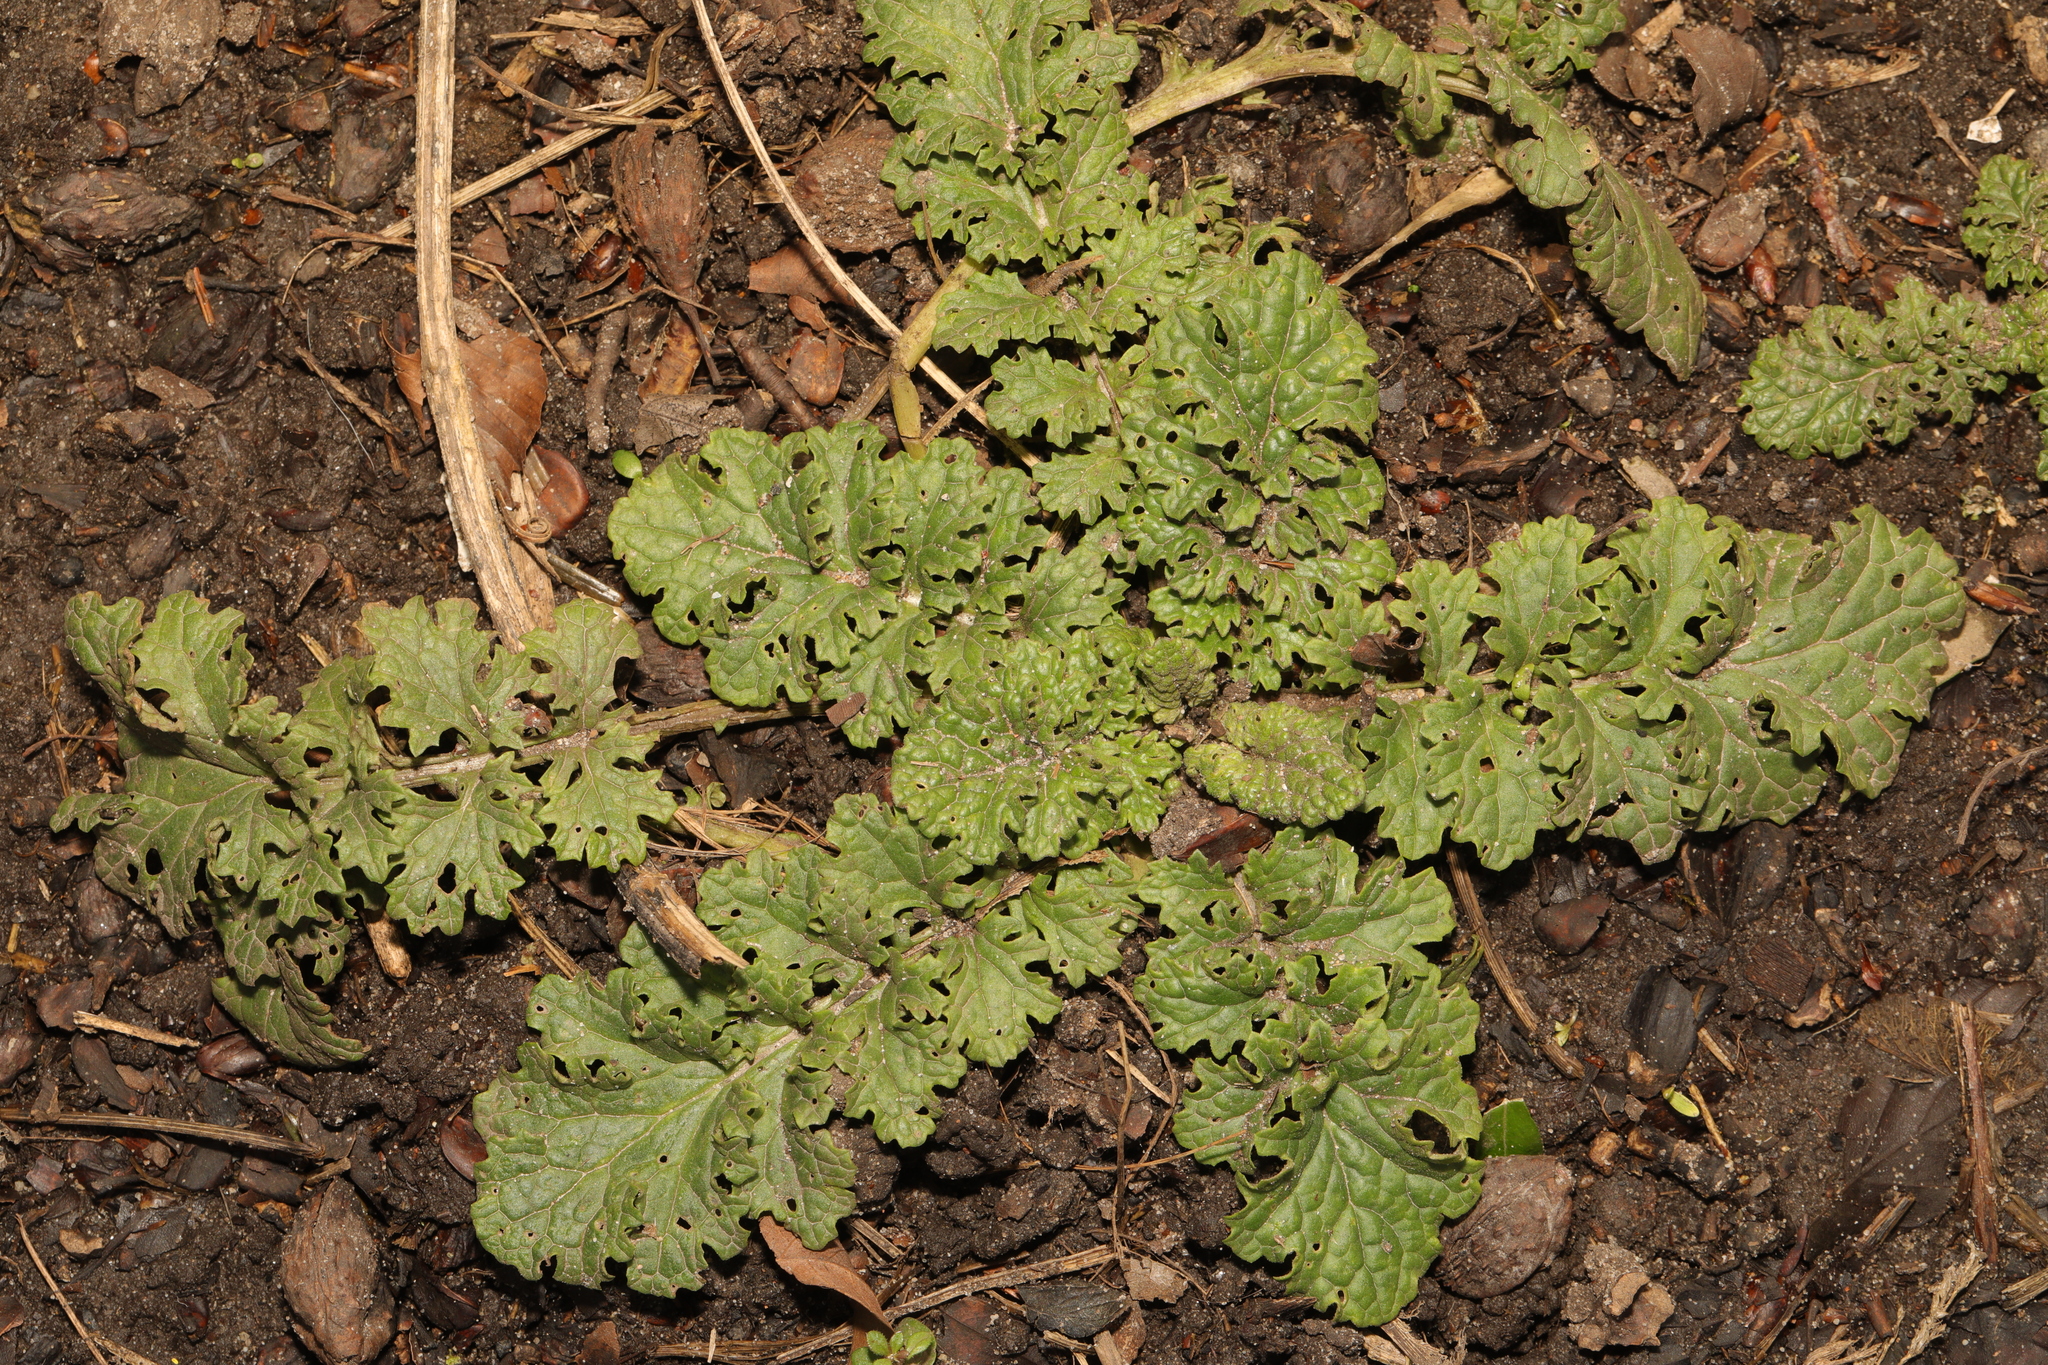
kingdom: Plantae
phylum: Tracheophyta
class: Magnoliopsida
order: Asterales
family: Asteraceae
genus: Jacobaea
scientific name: Jacobaea vulgaris
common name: Stinking willie
